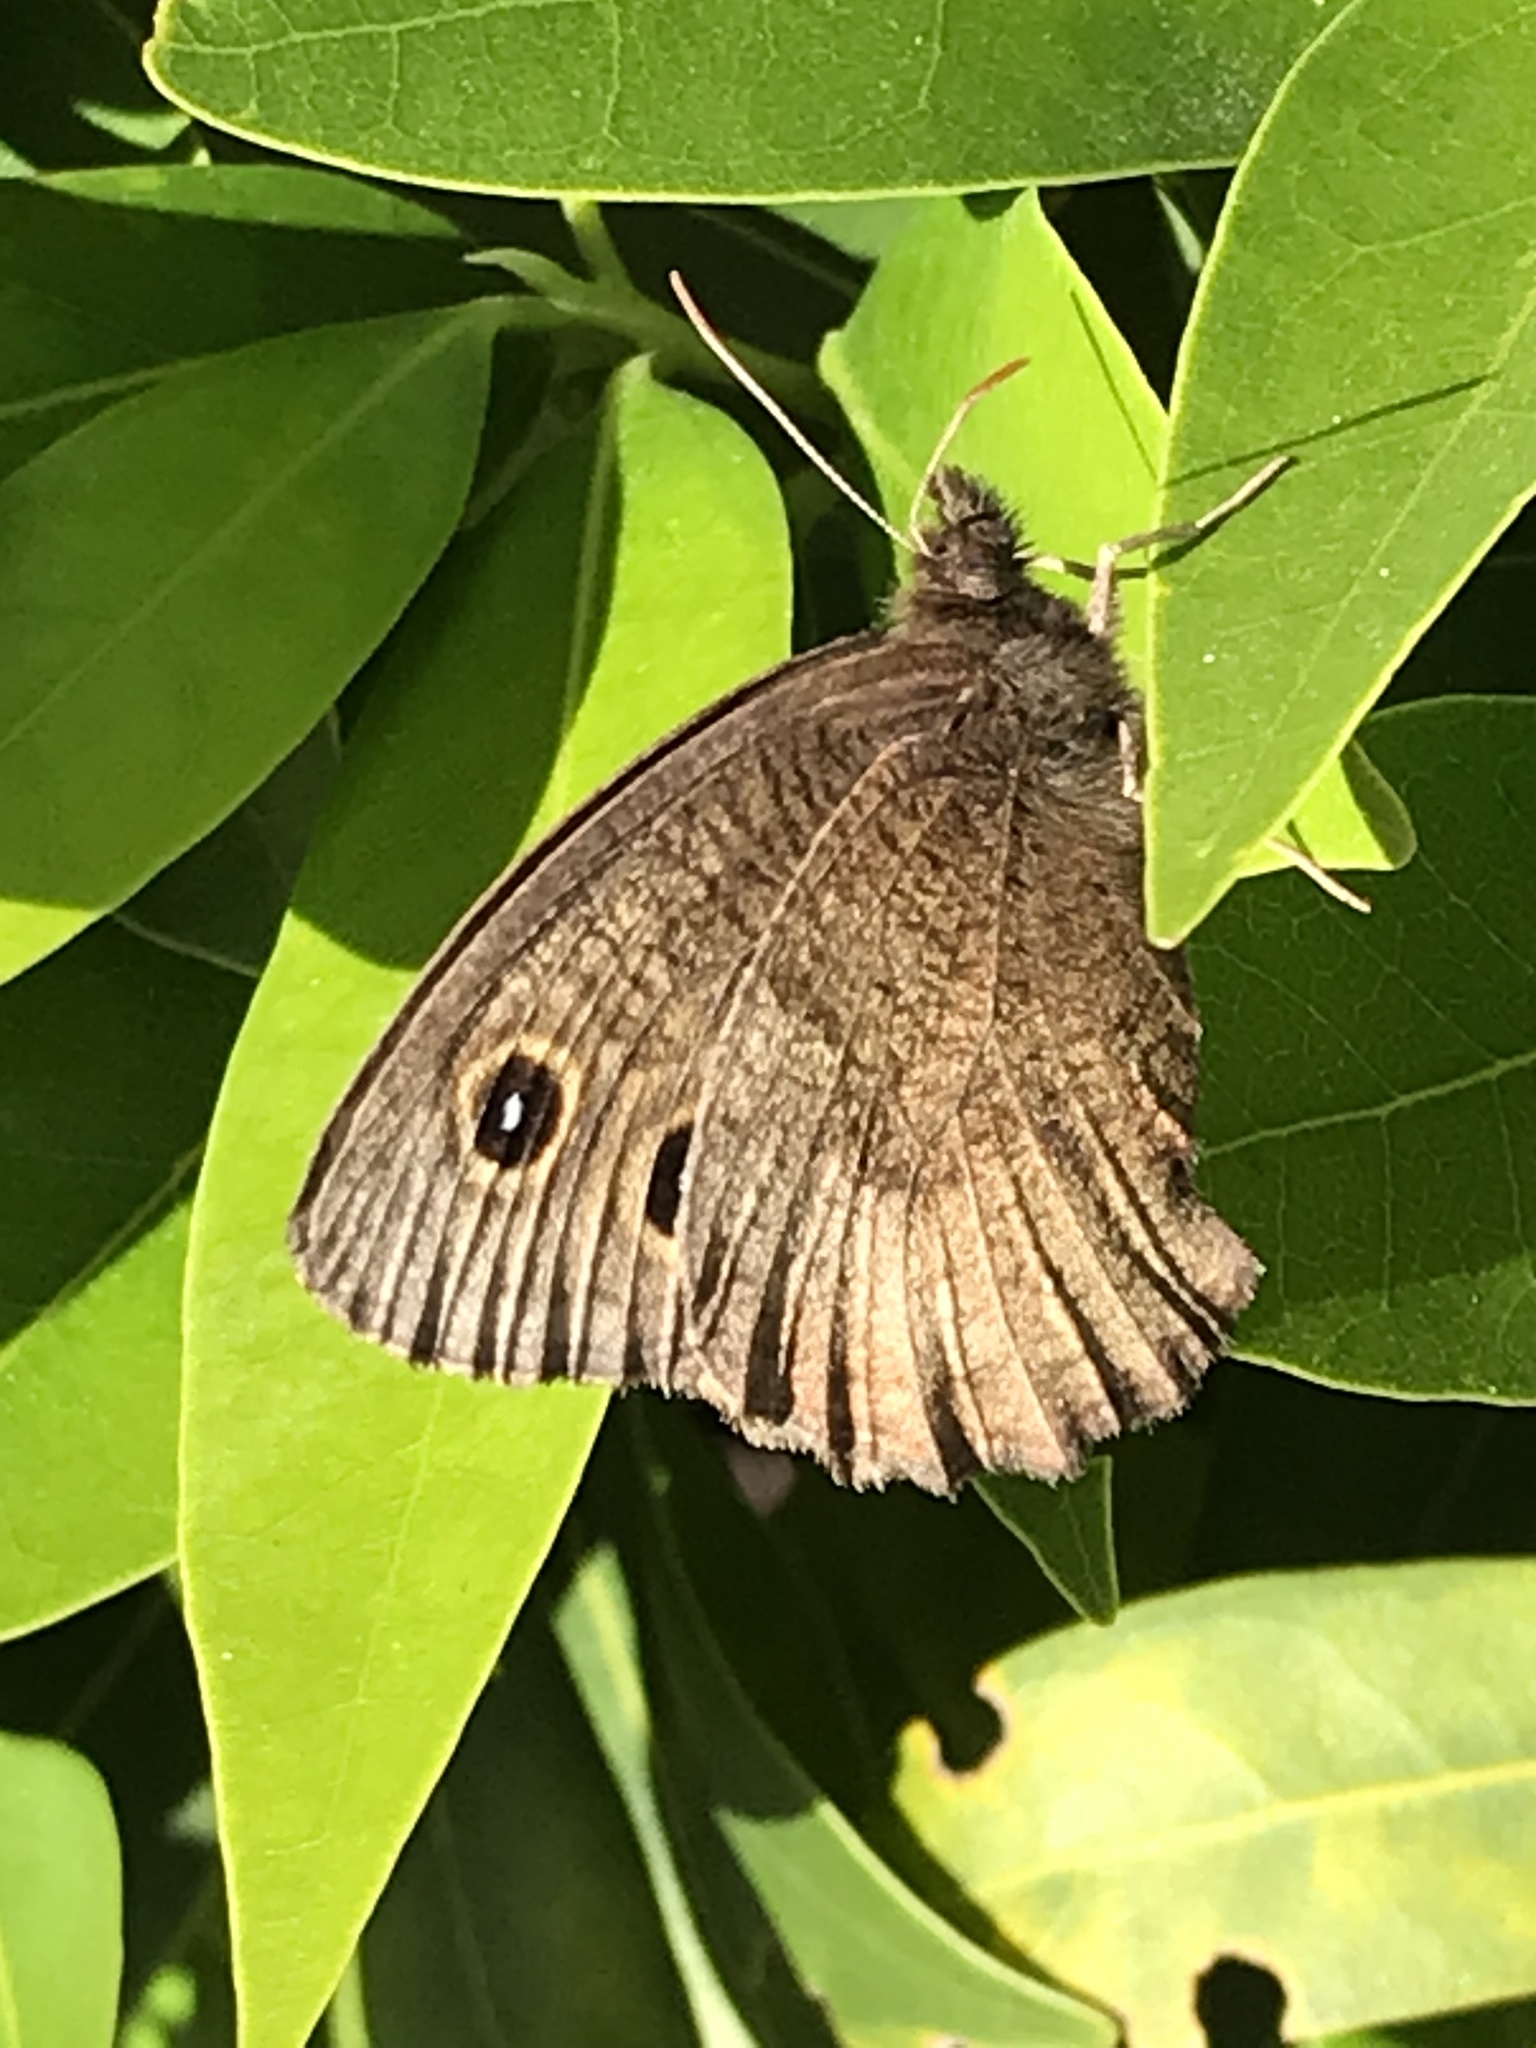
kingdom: Animalia
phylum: Arthropoda
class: Insecta
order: Lepidoptera
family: Nymphalidae
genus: Cercyonis
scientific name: Cercyonis pegala
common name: Common wood-nymph
